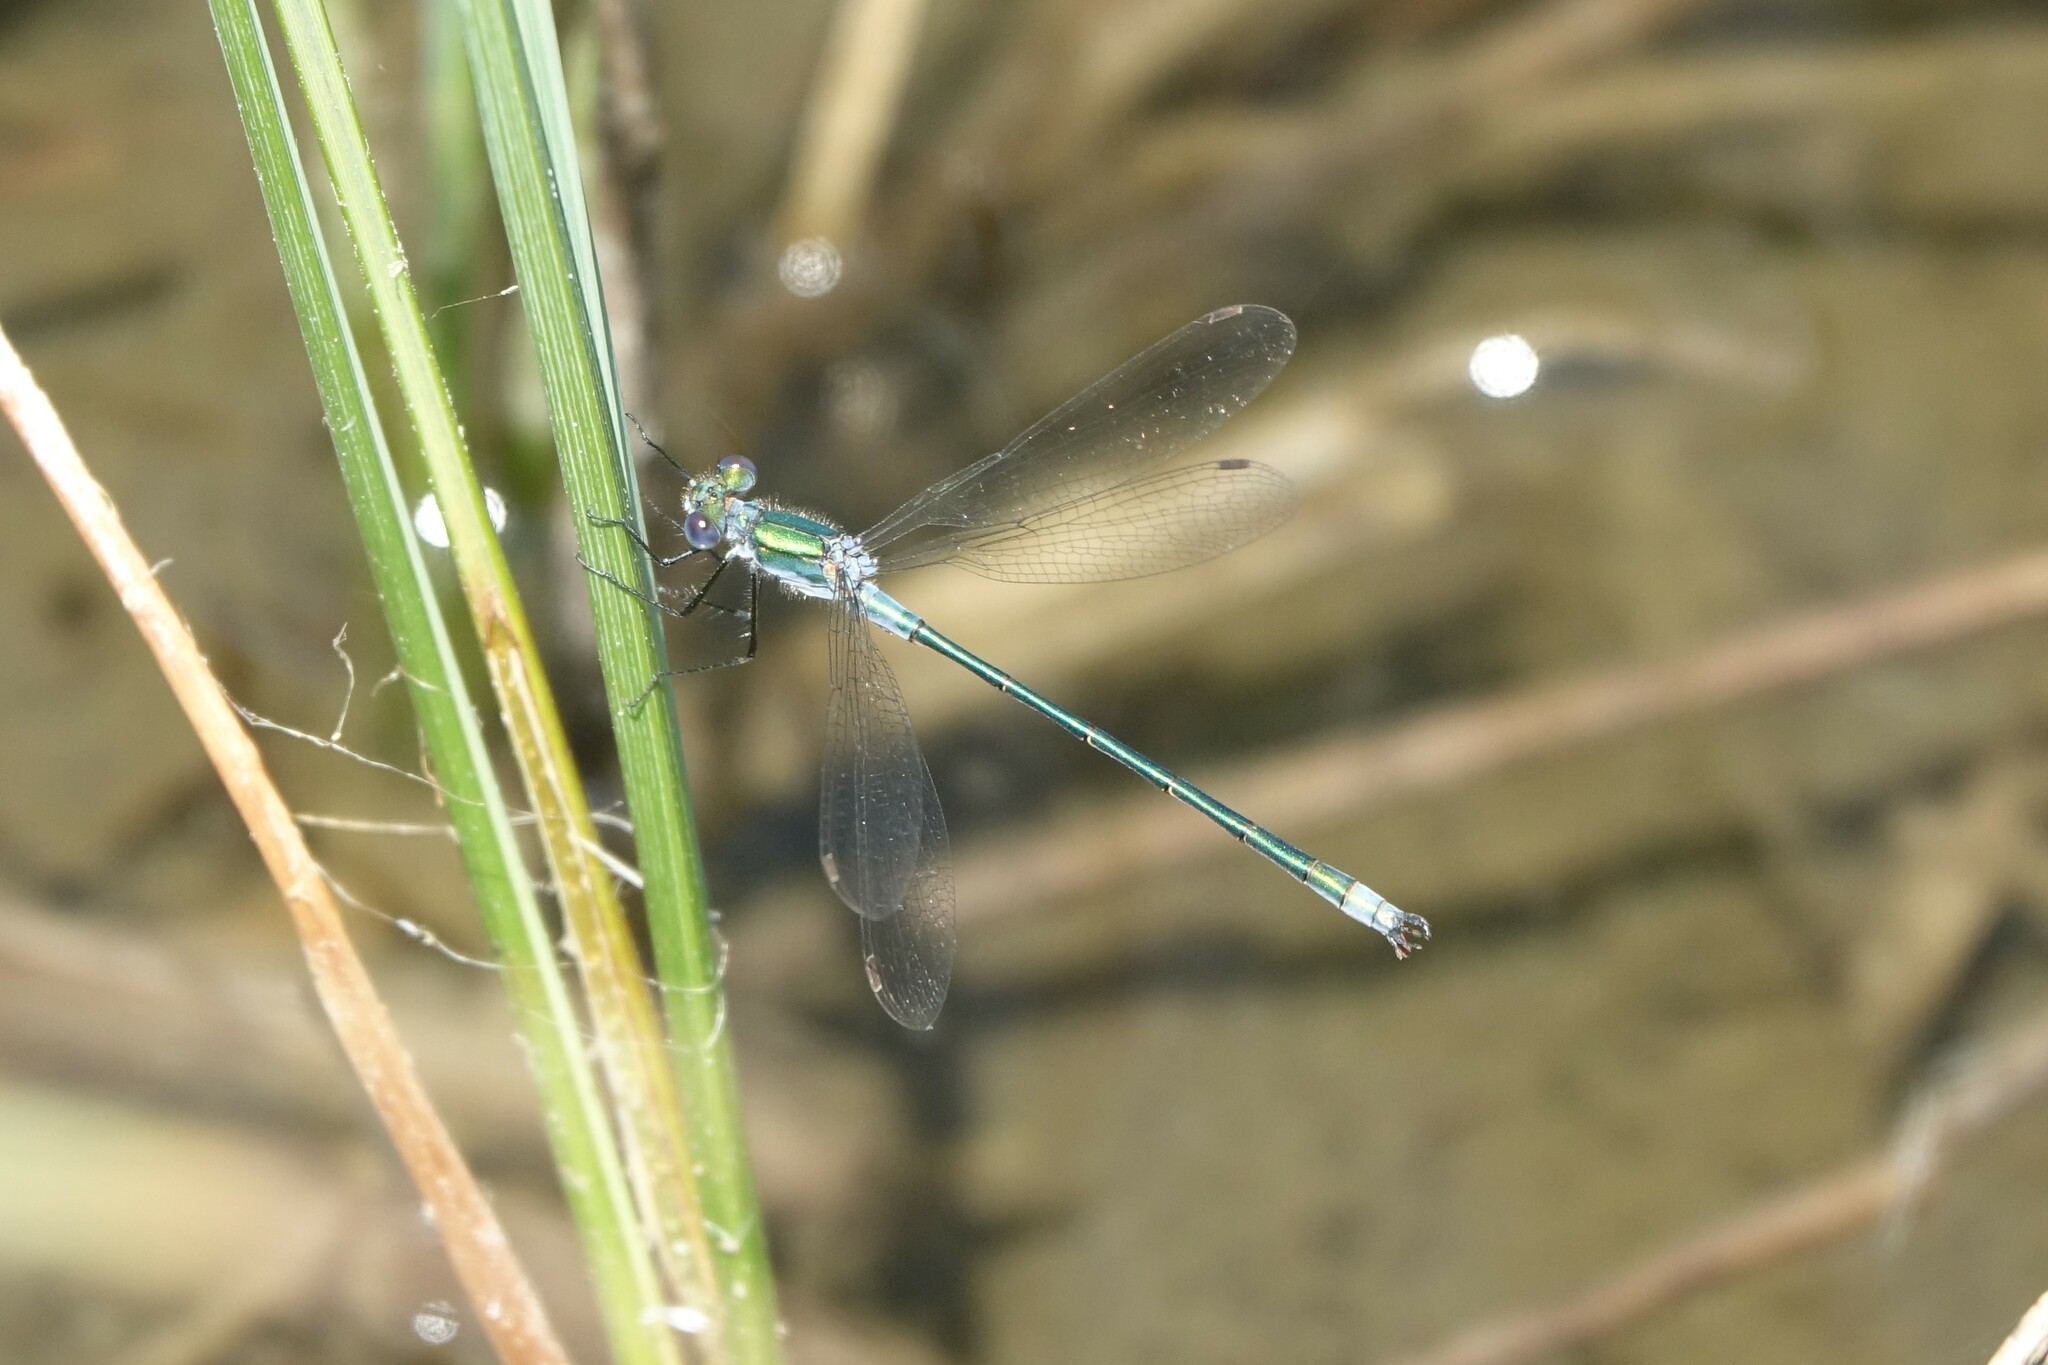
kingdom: Animalia
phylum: Arthropoda
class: Insecta
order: Odonata
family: Lestidae
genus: Lestes
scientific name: Lestes sponsa
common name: Common spreadwing
